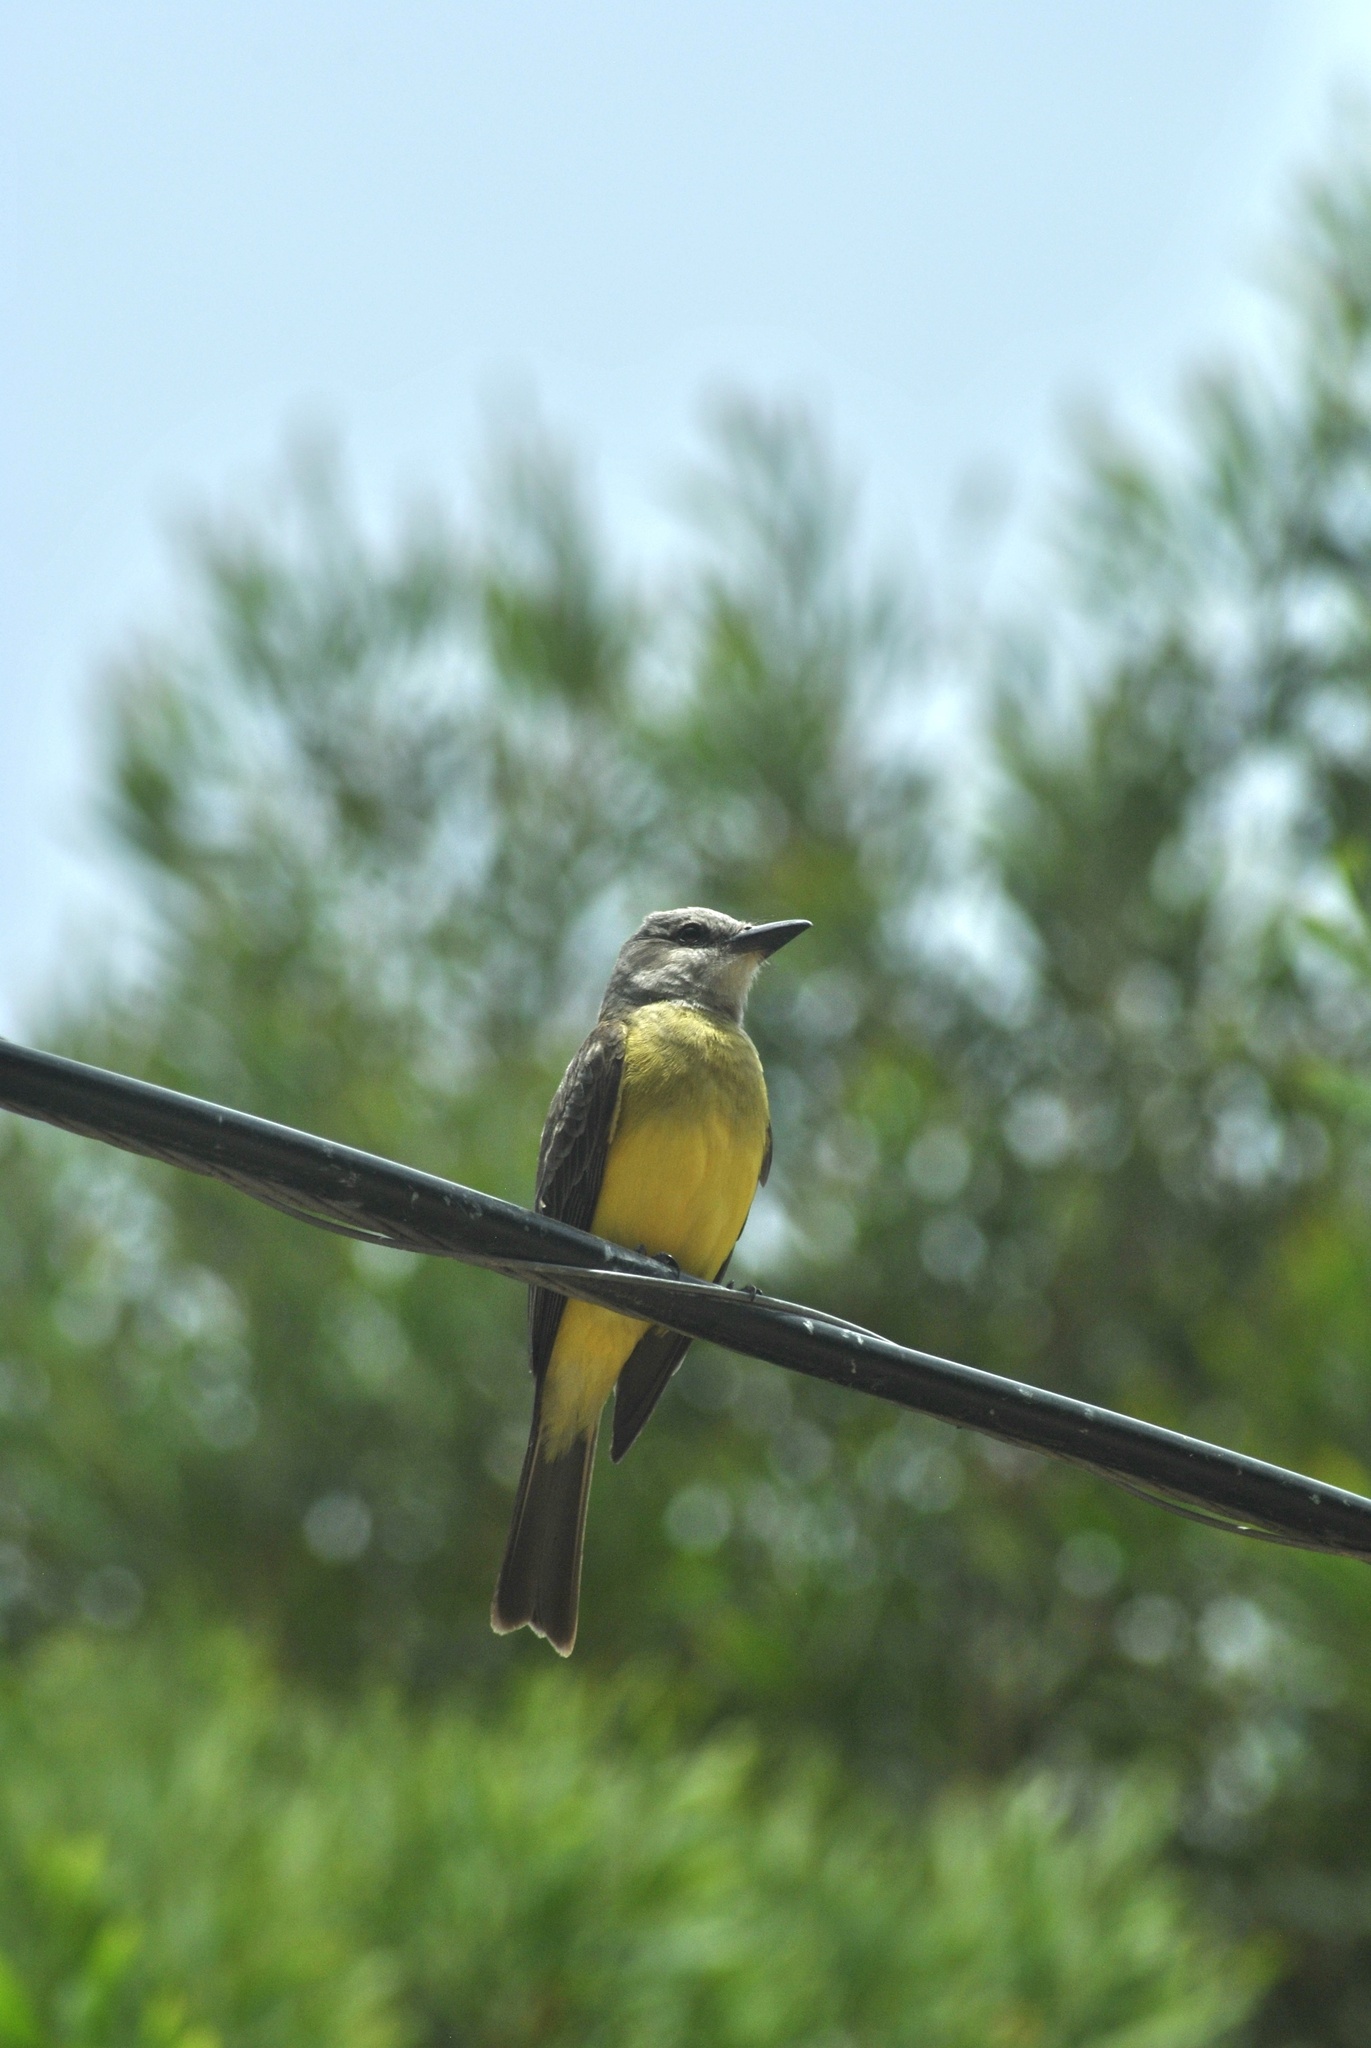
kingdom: Animalia
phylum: Chordata
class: Aves
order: Passeriformes
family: Tyrannidae
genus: Tyrannus
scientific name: Tyrannus melancholicus
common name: Tropical kingbird
